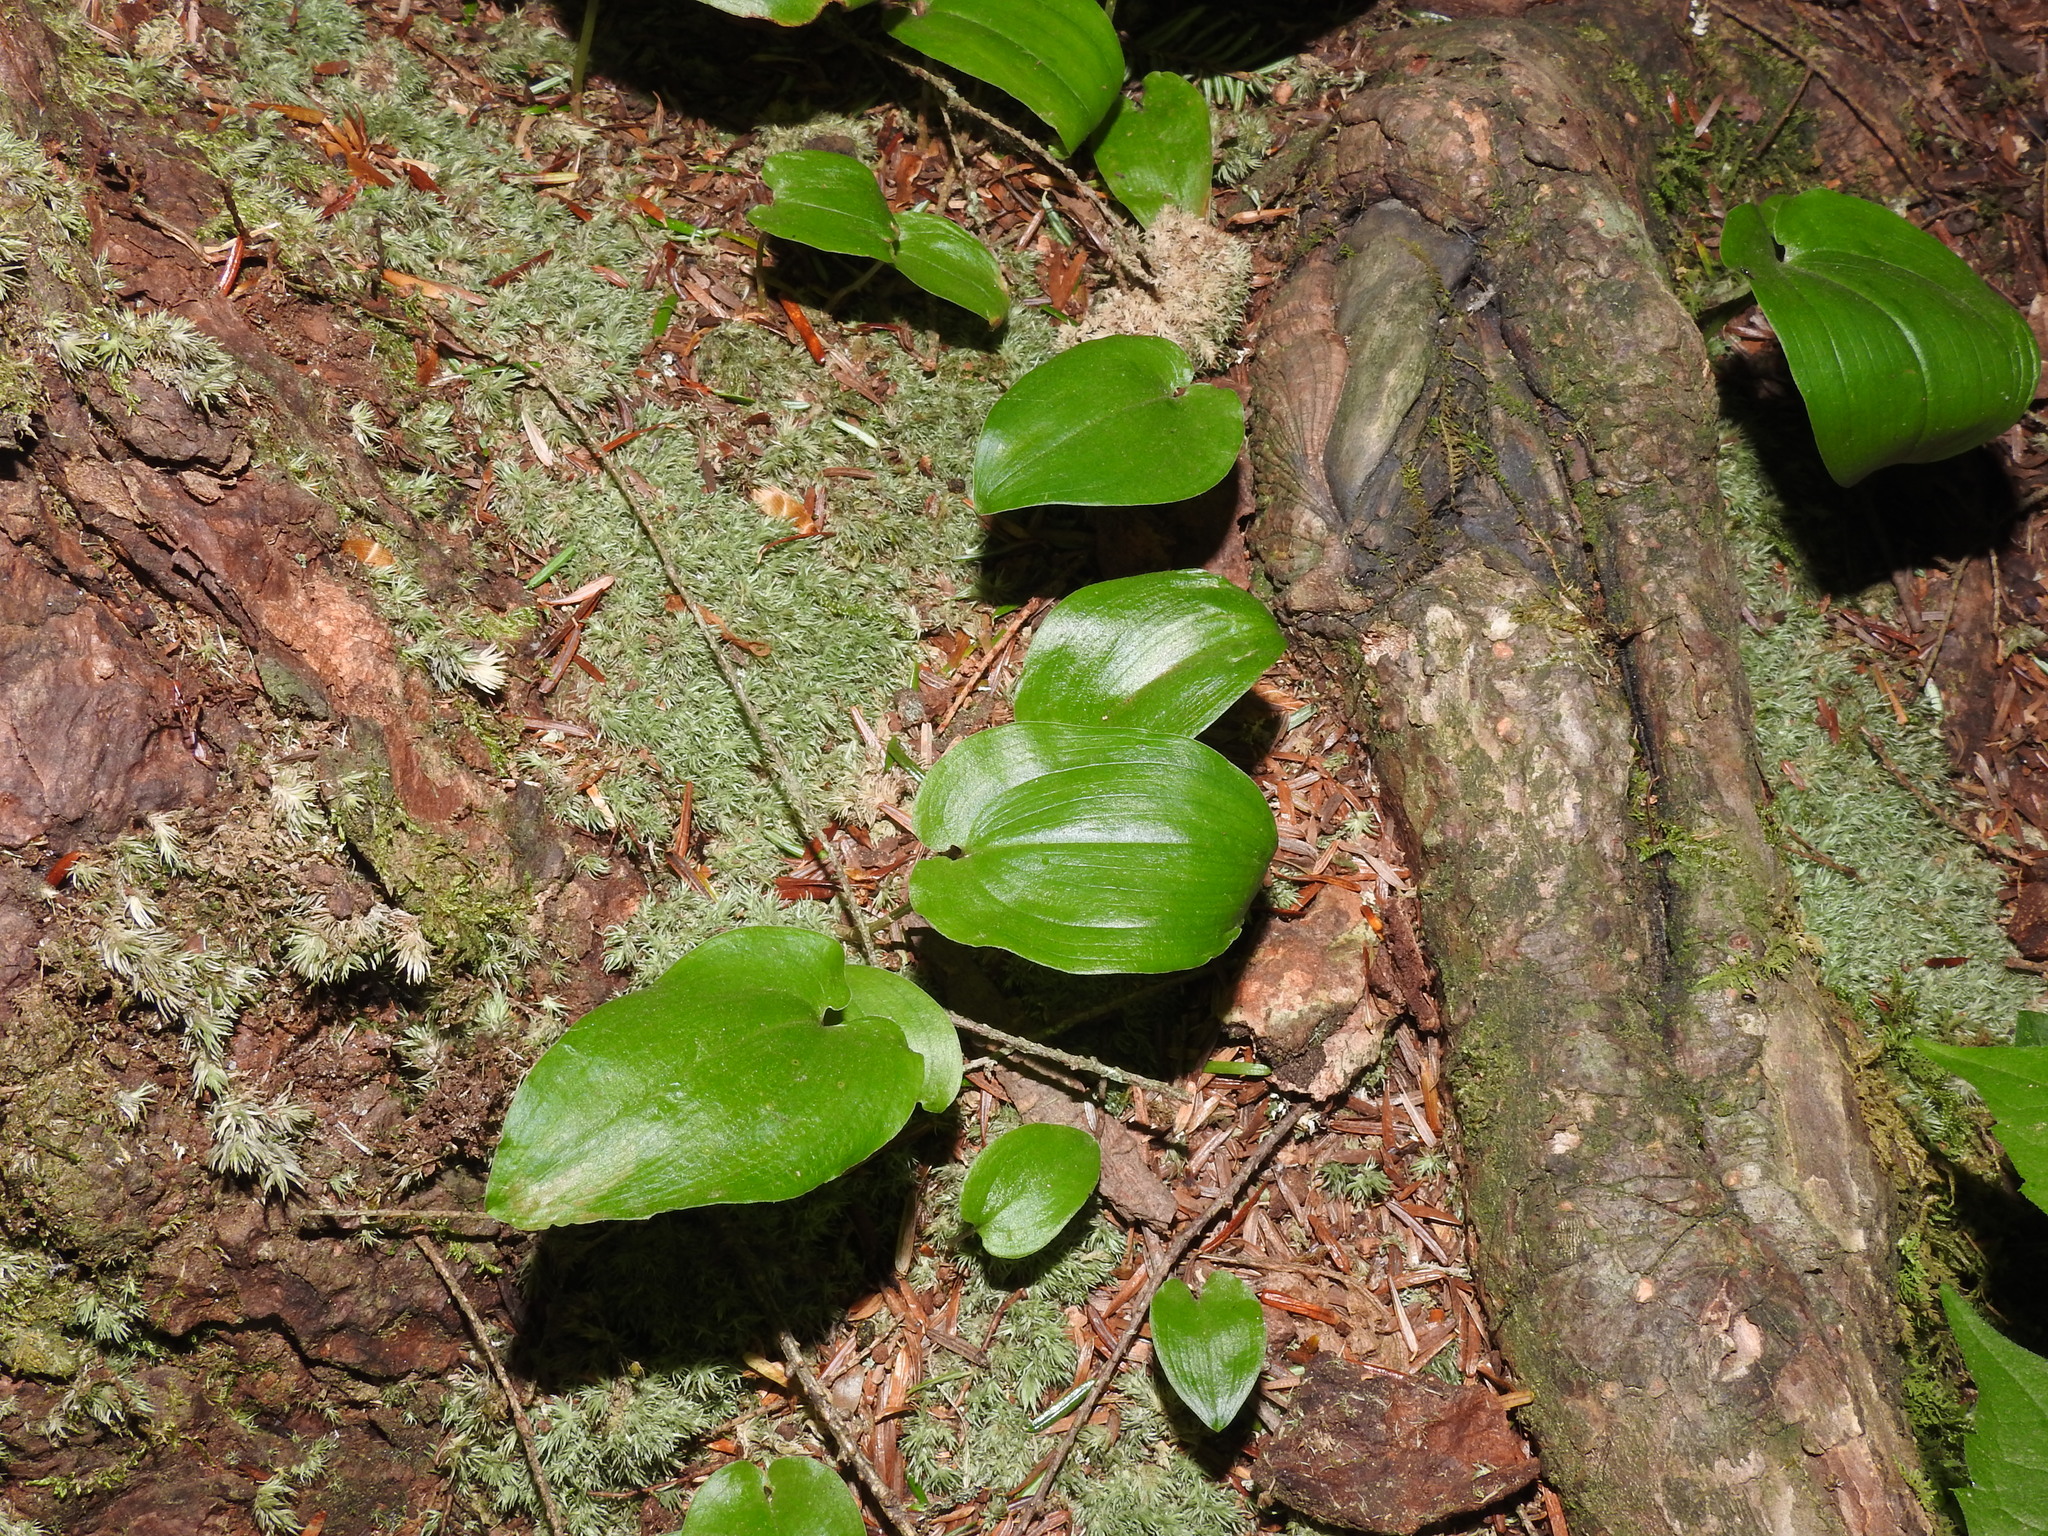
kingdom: Plantae
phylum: Tracheophyta
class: Liliopsida
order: Asparagales
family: Asparagaceae
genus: Maianthemum
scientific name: Maianthemum canadense
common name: False lily-of-the-valley
